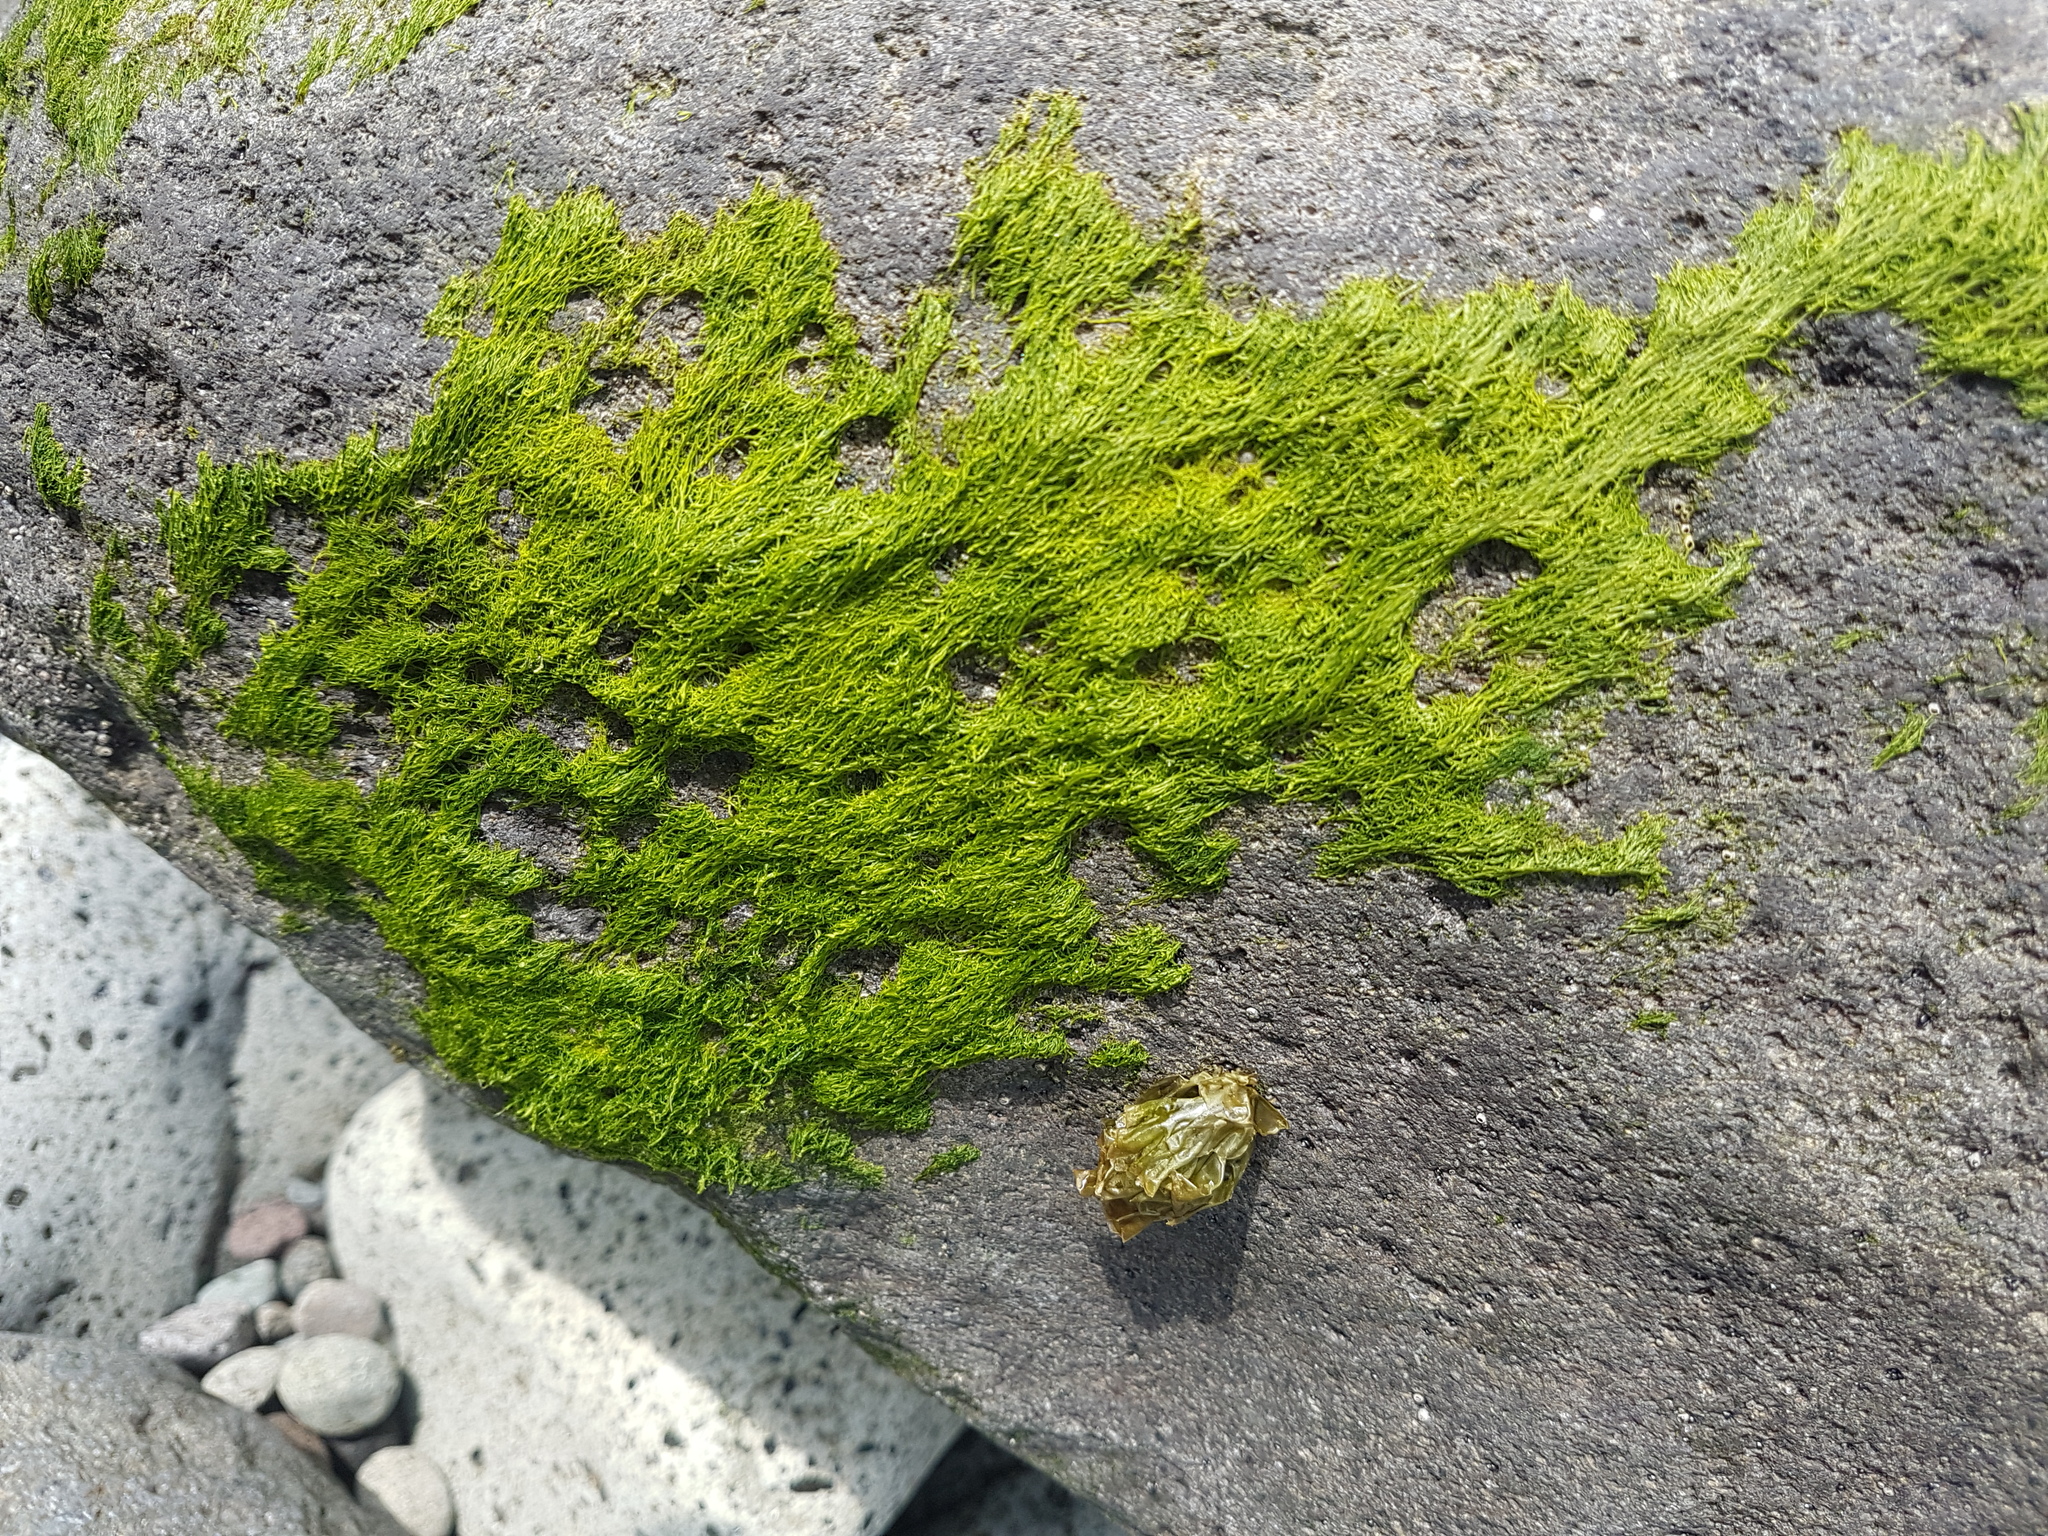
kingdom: Plantae
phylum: Chlorophyta
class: Ulvophyceae
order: Ulvales
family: Ulvaceae
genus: Ulva
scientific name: Ulva intestinalis
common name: Gut weed
